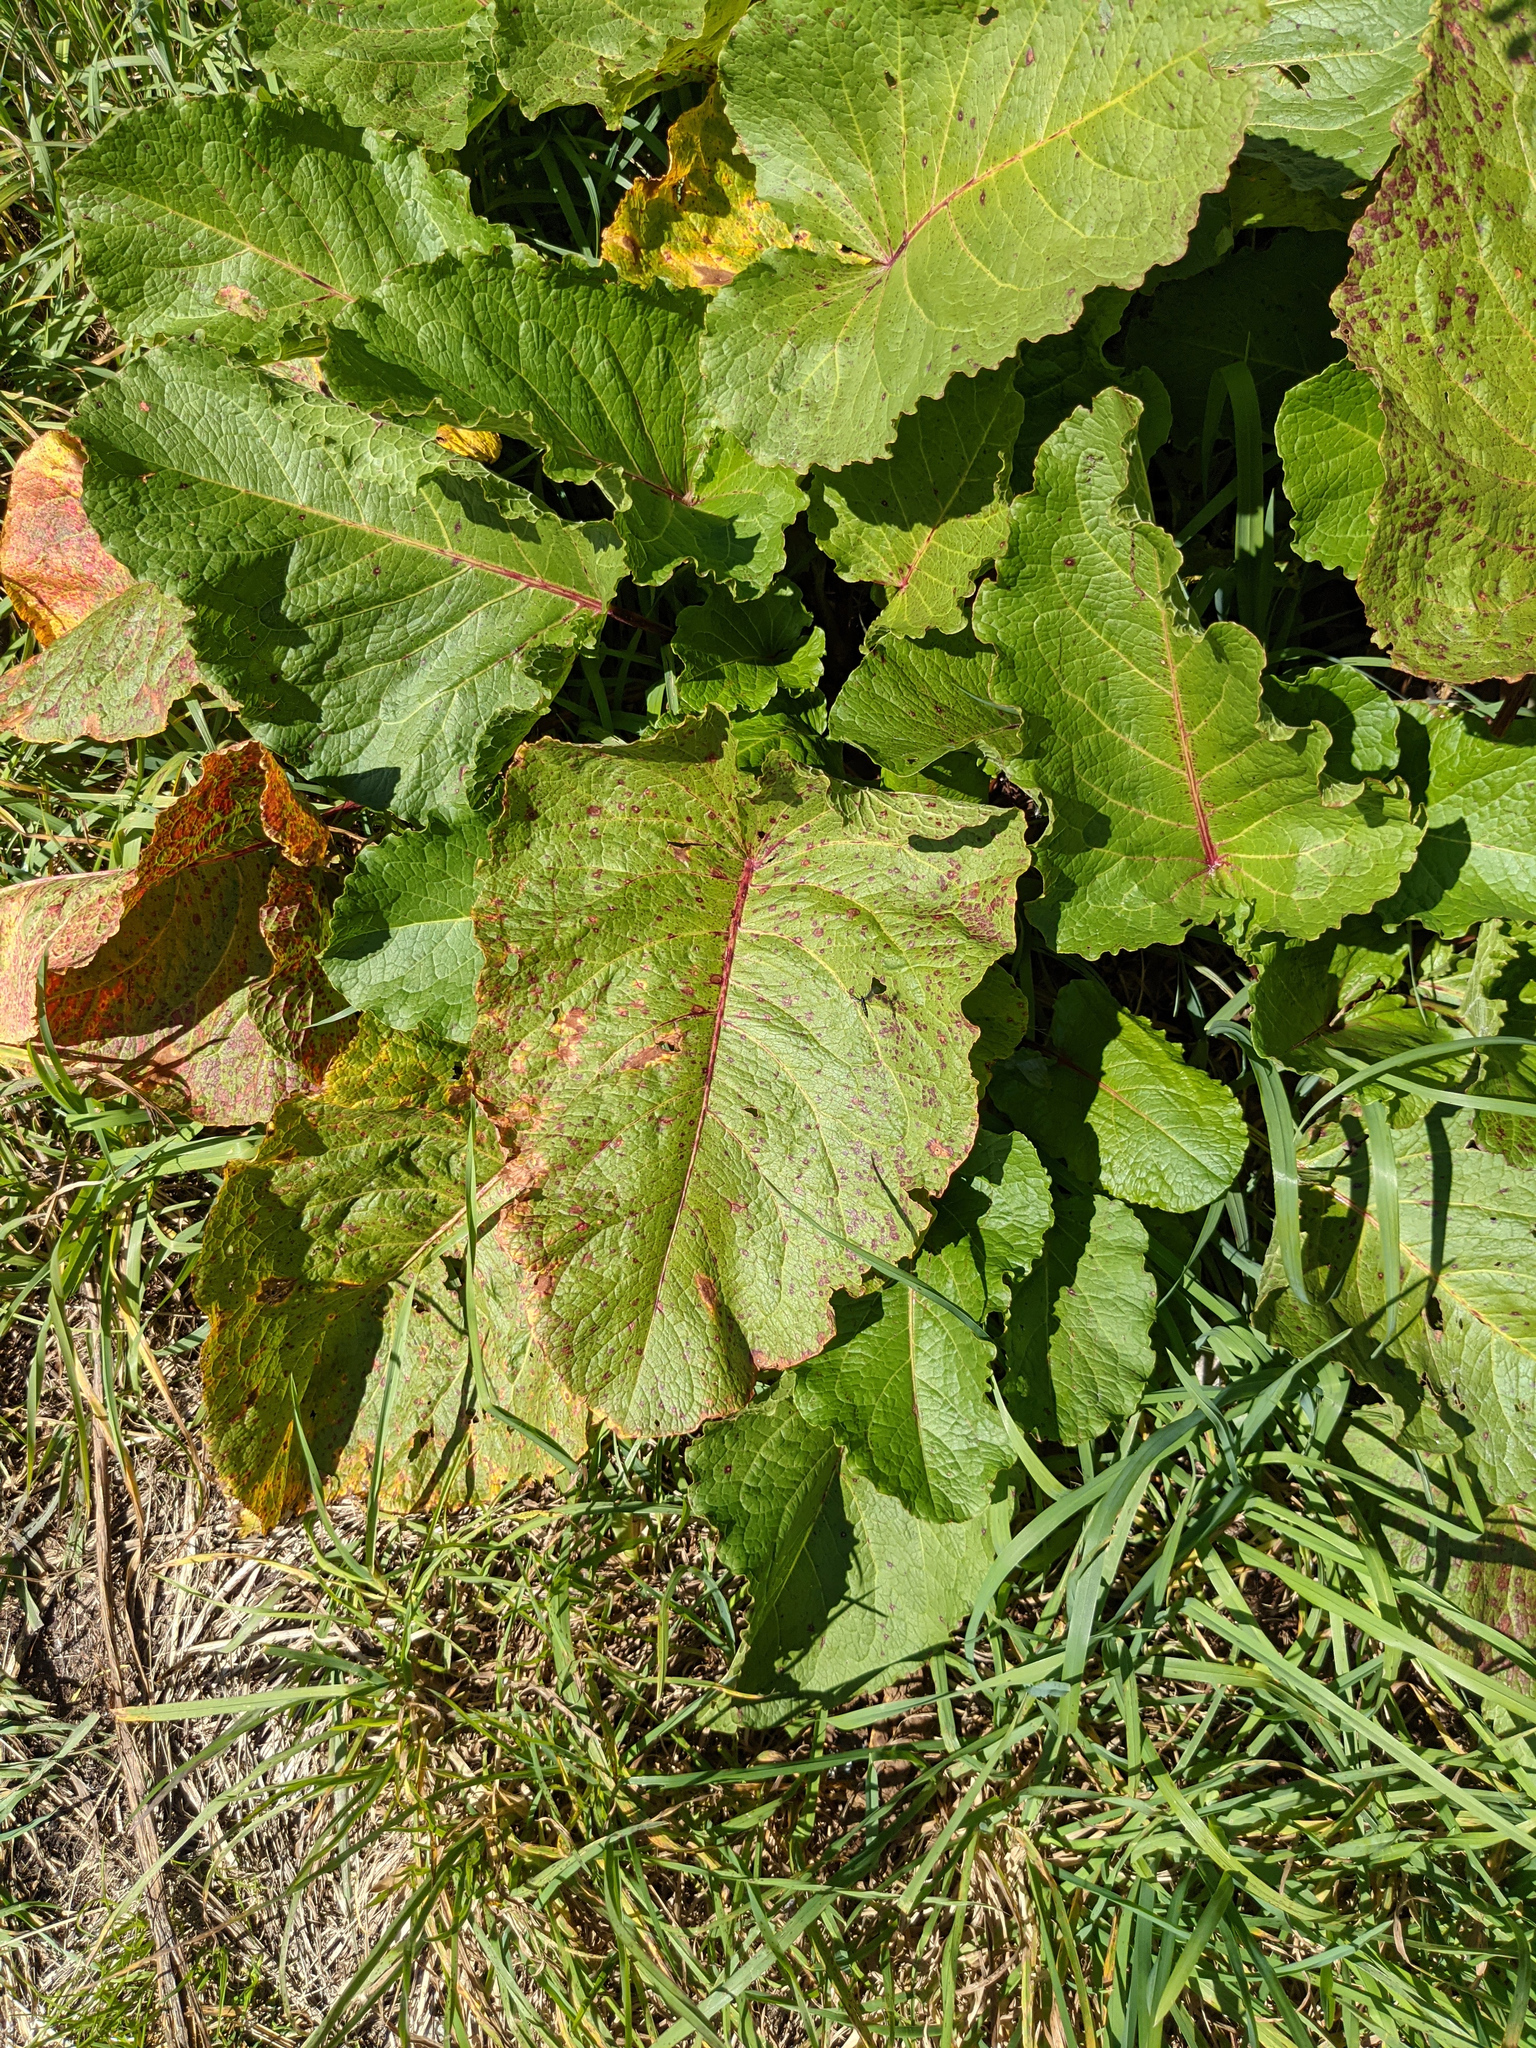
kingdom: Plantae
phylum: Tracheophyta
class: Magnoliopsida
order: Caryophyllales
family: Polygonaceae
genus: Rumex
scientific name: Rumex alpinus
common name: Alpine dock
